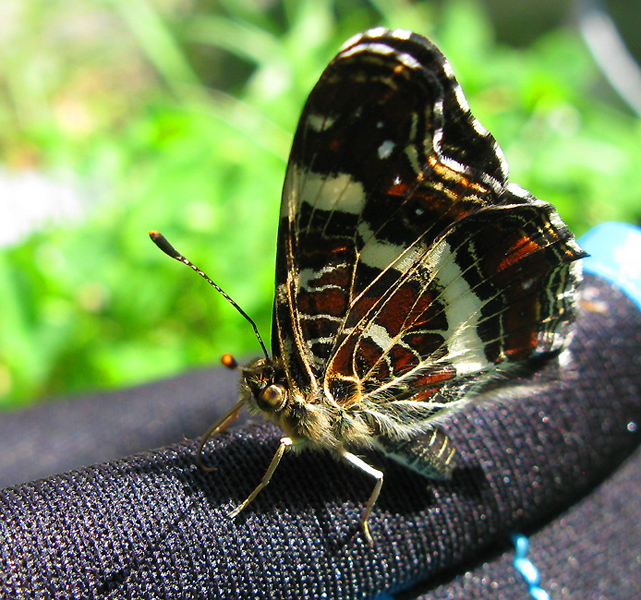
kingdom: Animalia
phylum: Arthropoda
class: Insecta
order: Lepidoptera
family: Nymphalidae
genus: Araschnia
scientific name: Araschnia levana
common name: Map butterfly
